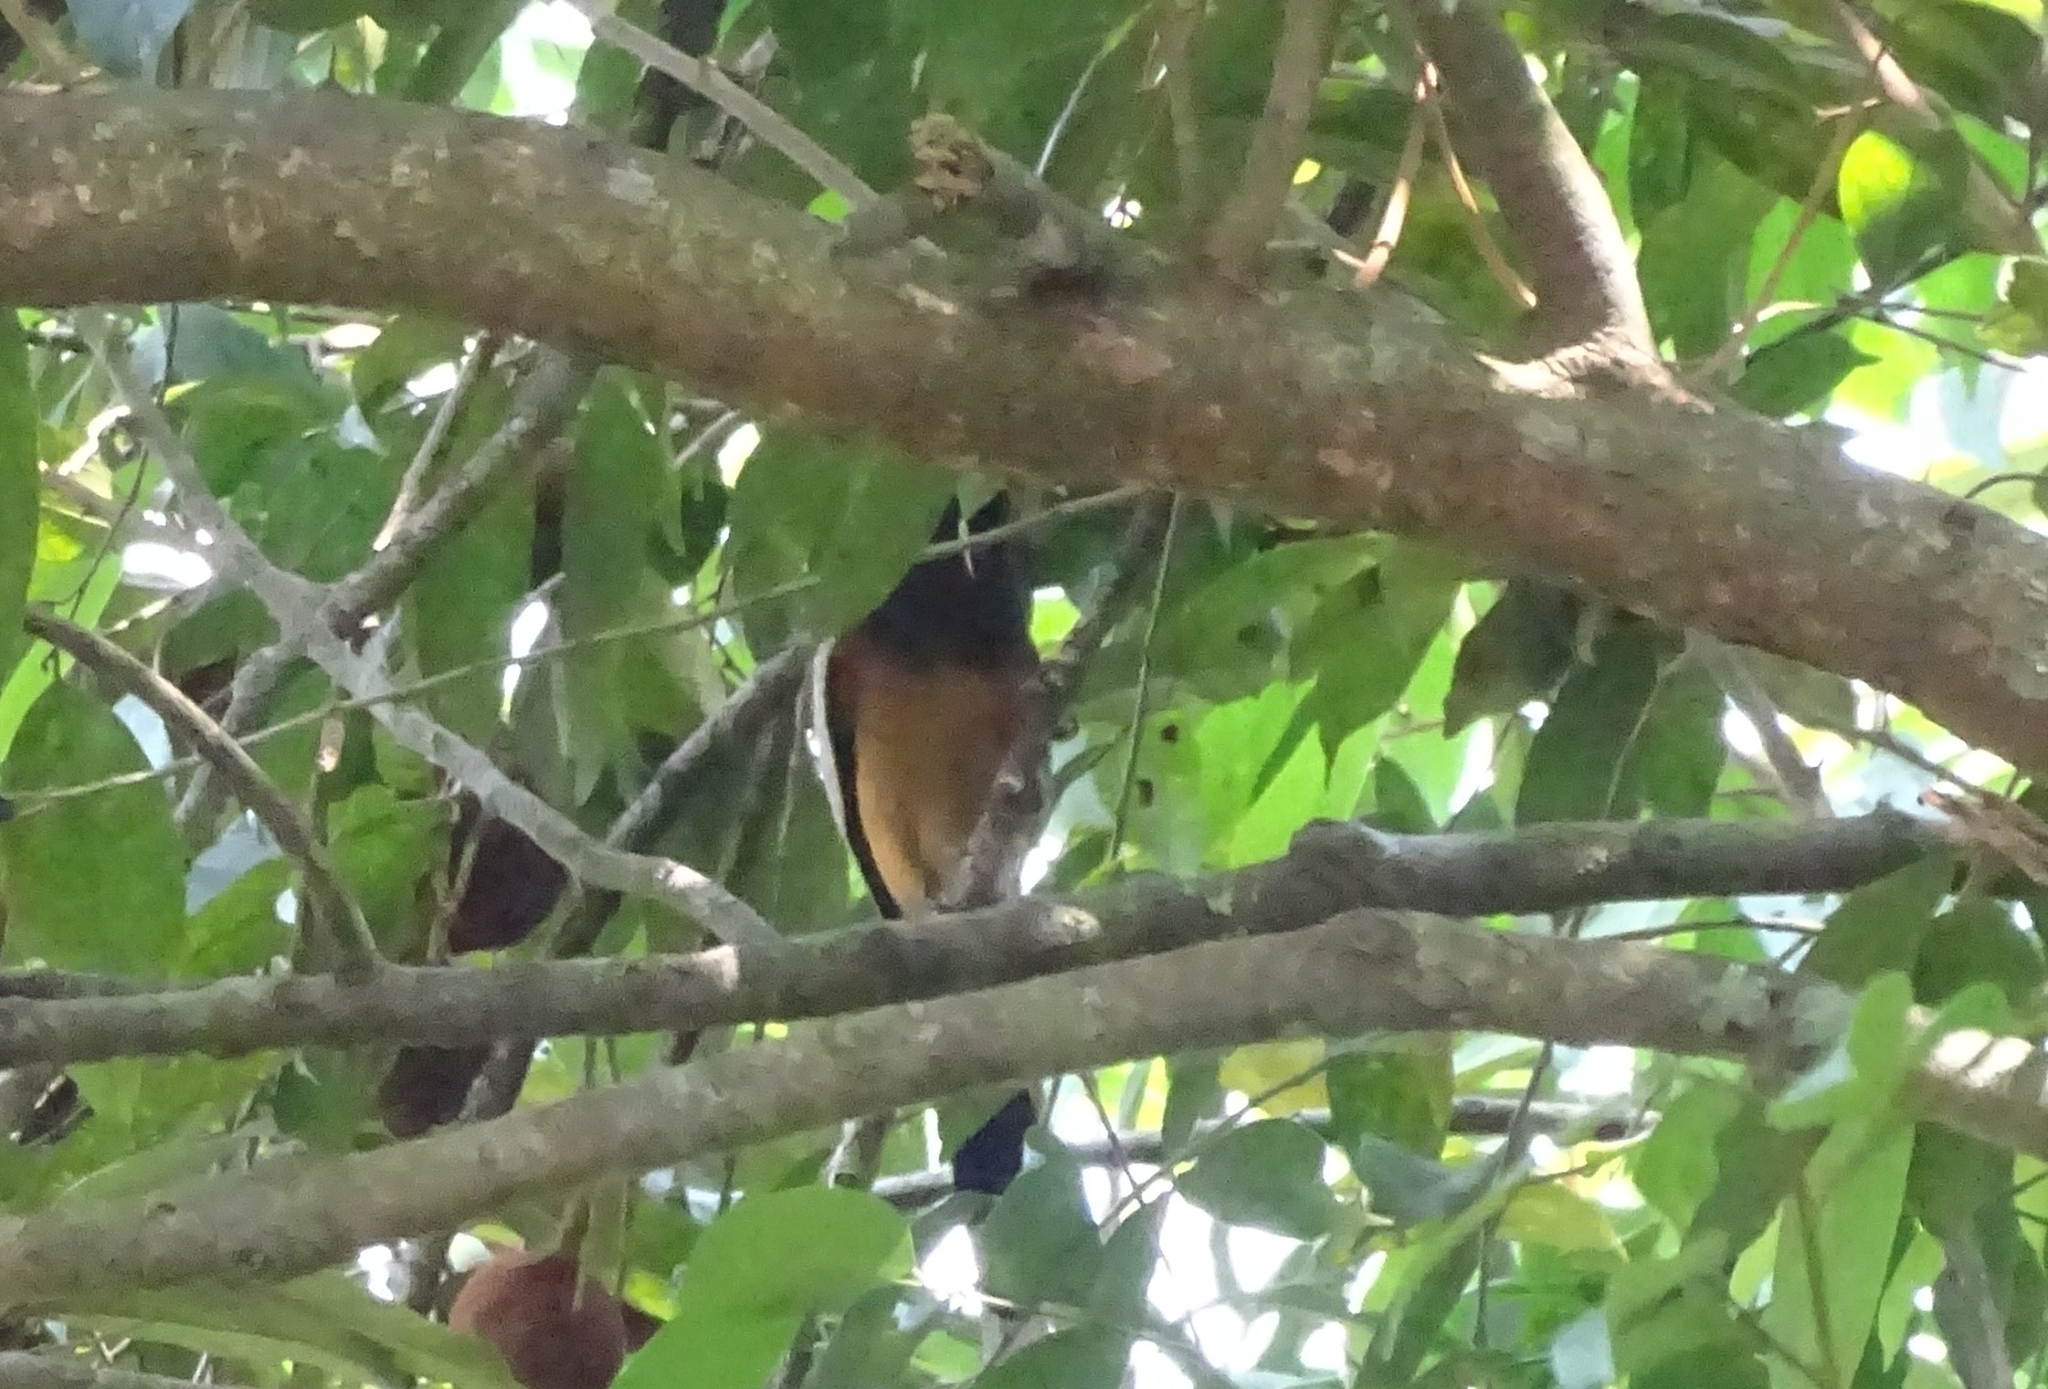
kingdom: Animalia
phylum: Chordata
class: Aves
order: Passeriformes
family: Corvidae
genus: Dendrocitta
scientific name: Dendrocitta vagabunda
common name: Rufous treepie
